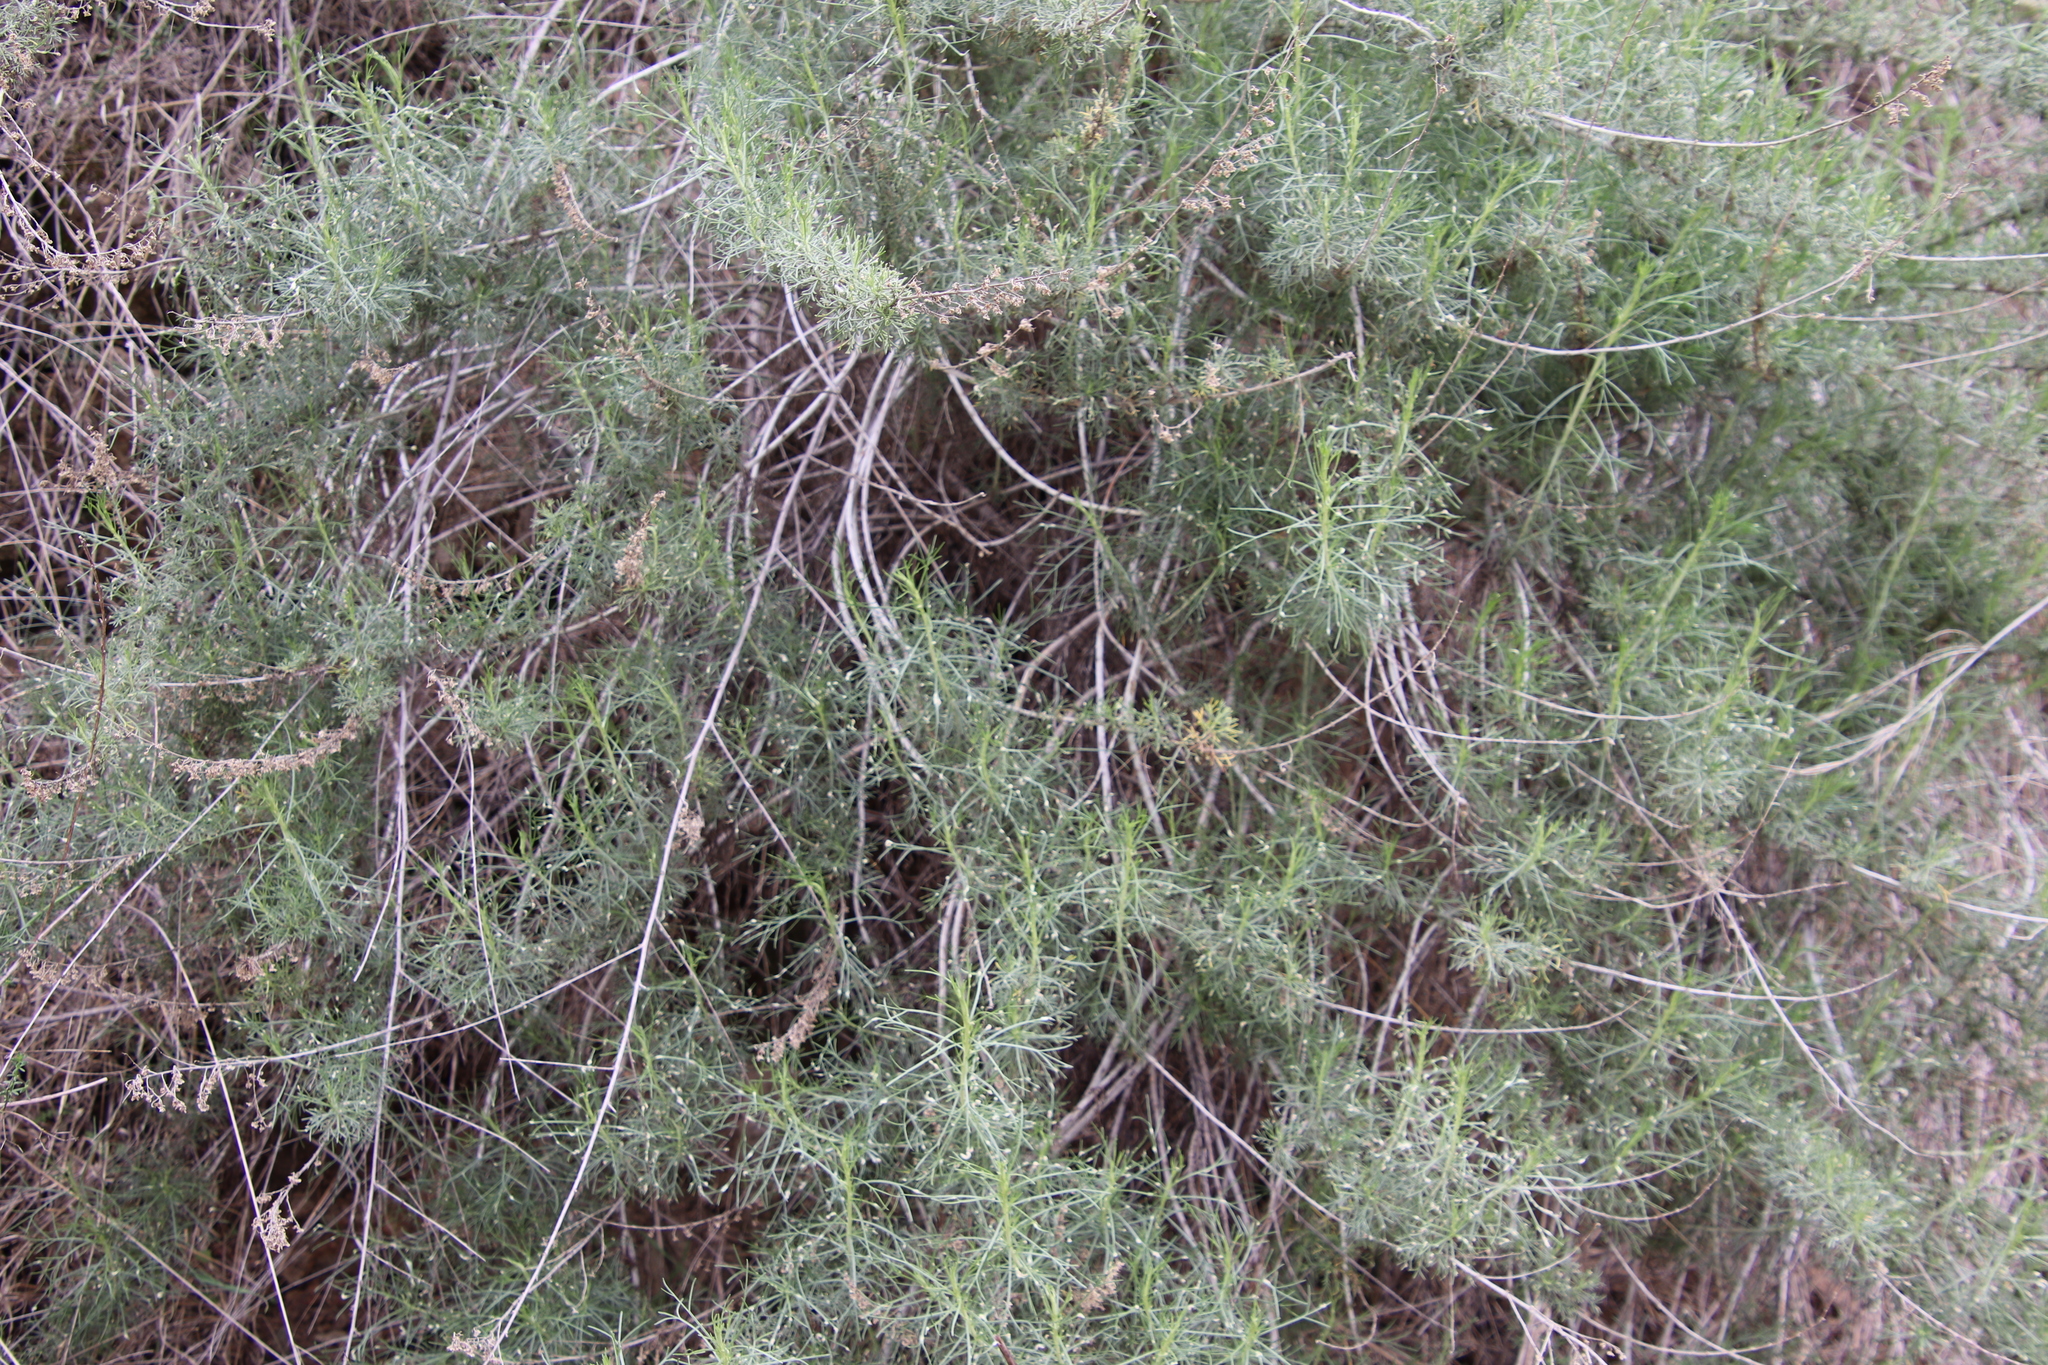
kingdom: Animalia
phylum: Arthropoda
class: Arachnida
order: Trombidiformes
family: Eriophyidae
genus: Aceria
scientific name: Aceria
